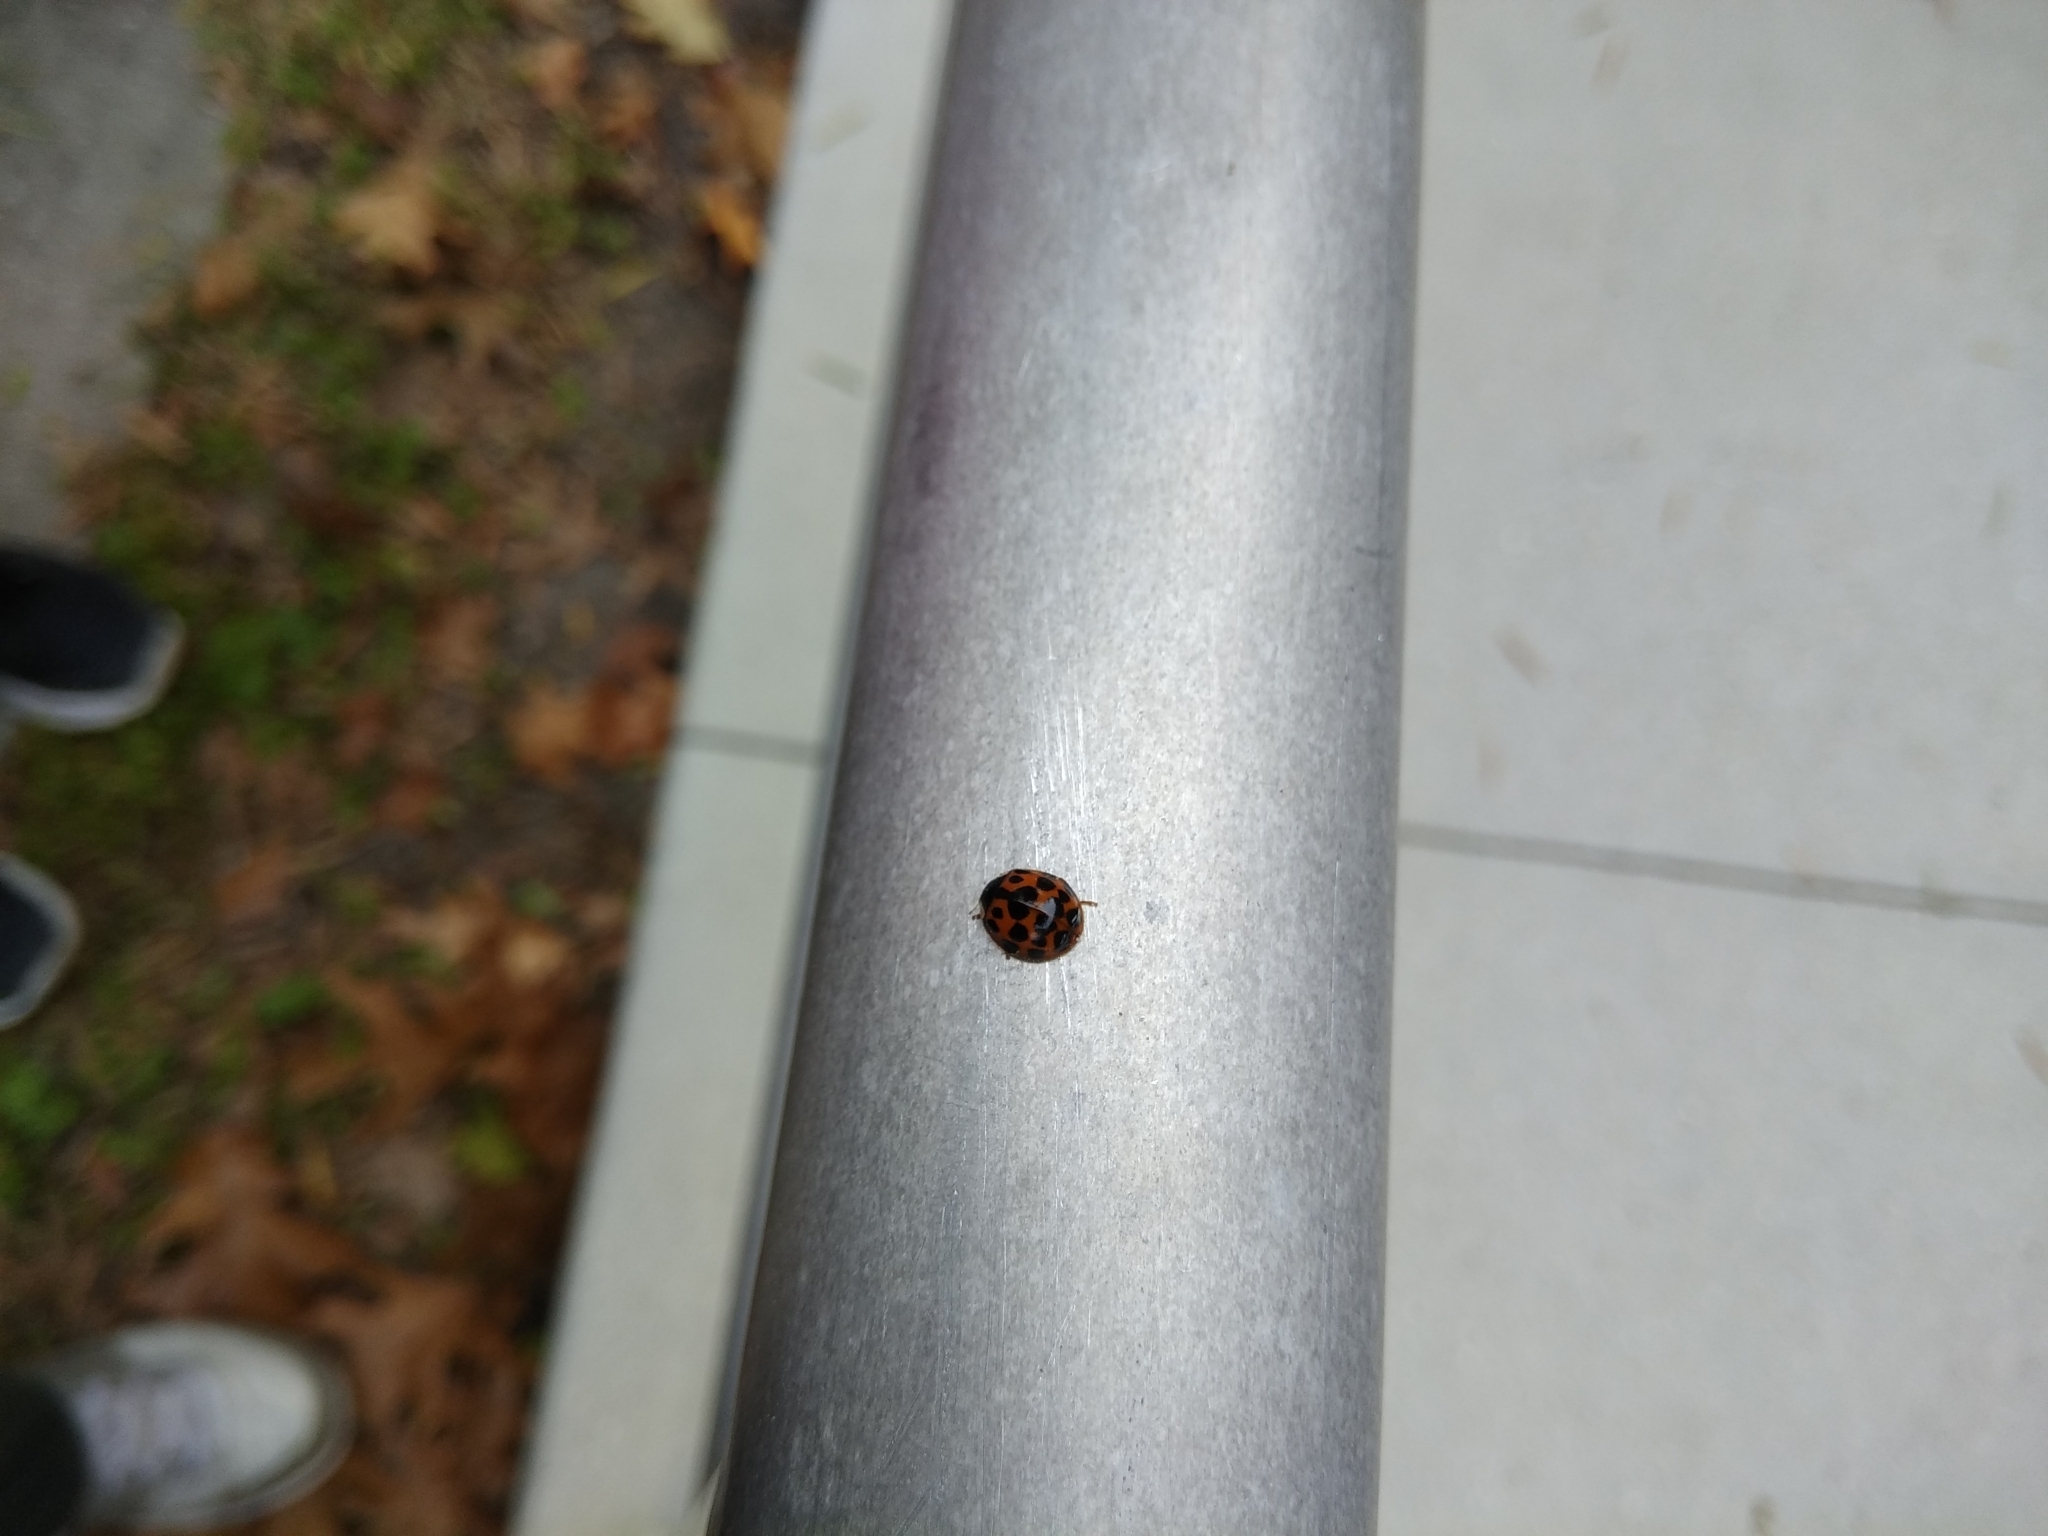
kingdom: Animalia
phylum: Arthropoda
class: Insecta
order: Coleoptera
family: Coccinellidae
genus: Harmonia
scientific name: Harmonia axyridis
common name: Harlequin ladybird
